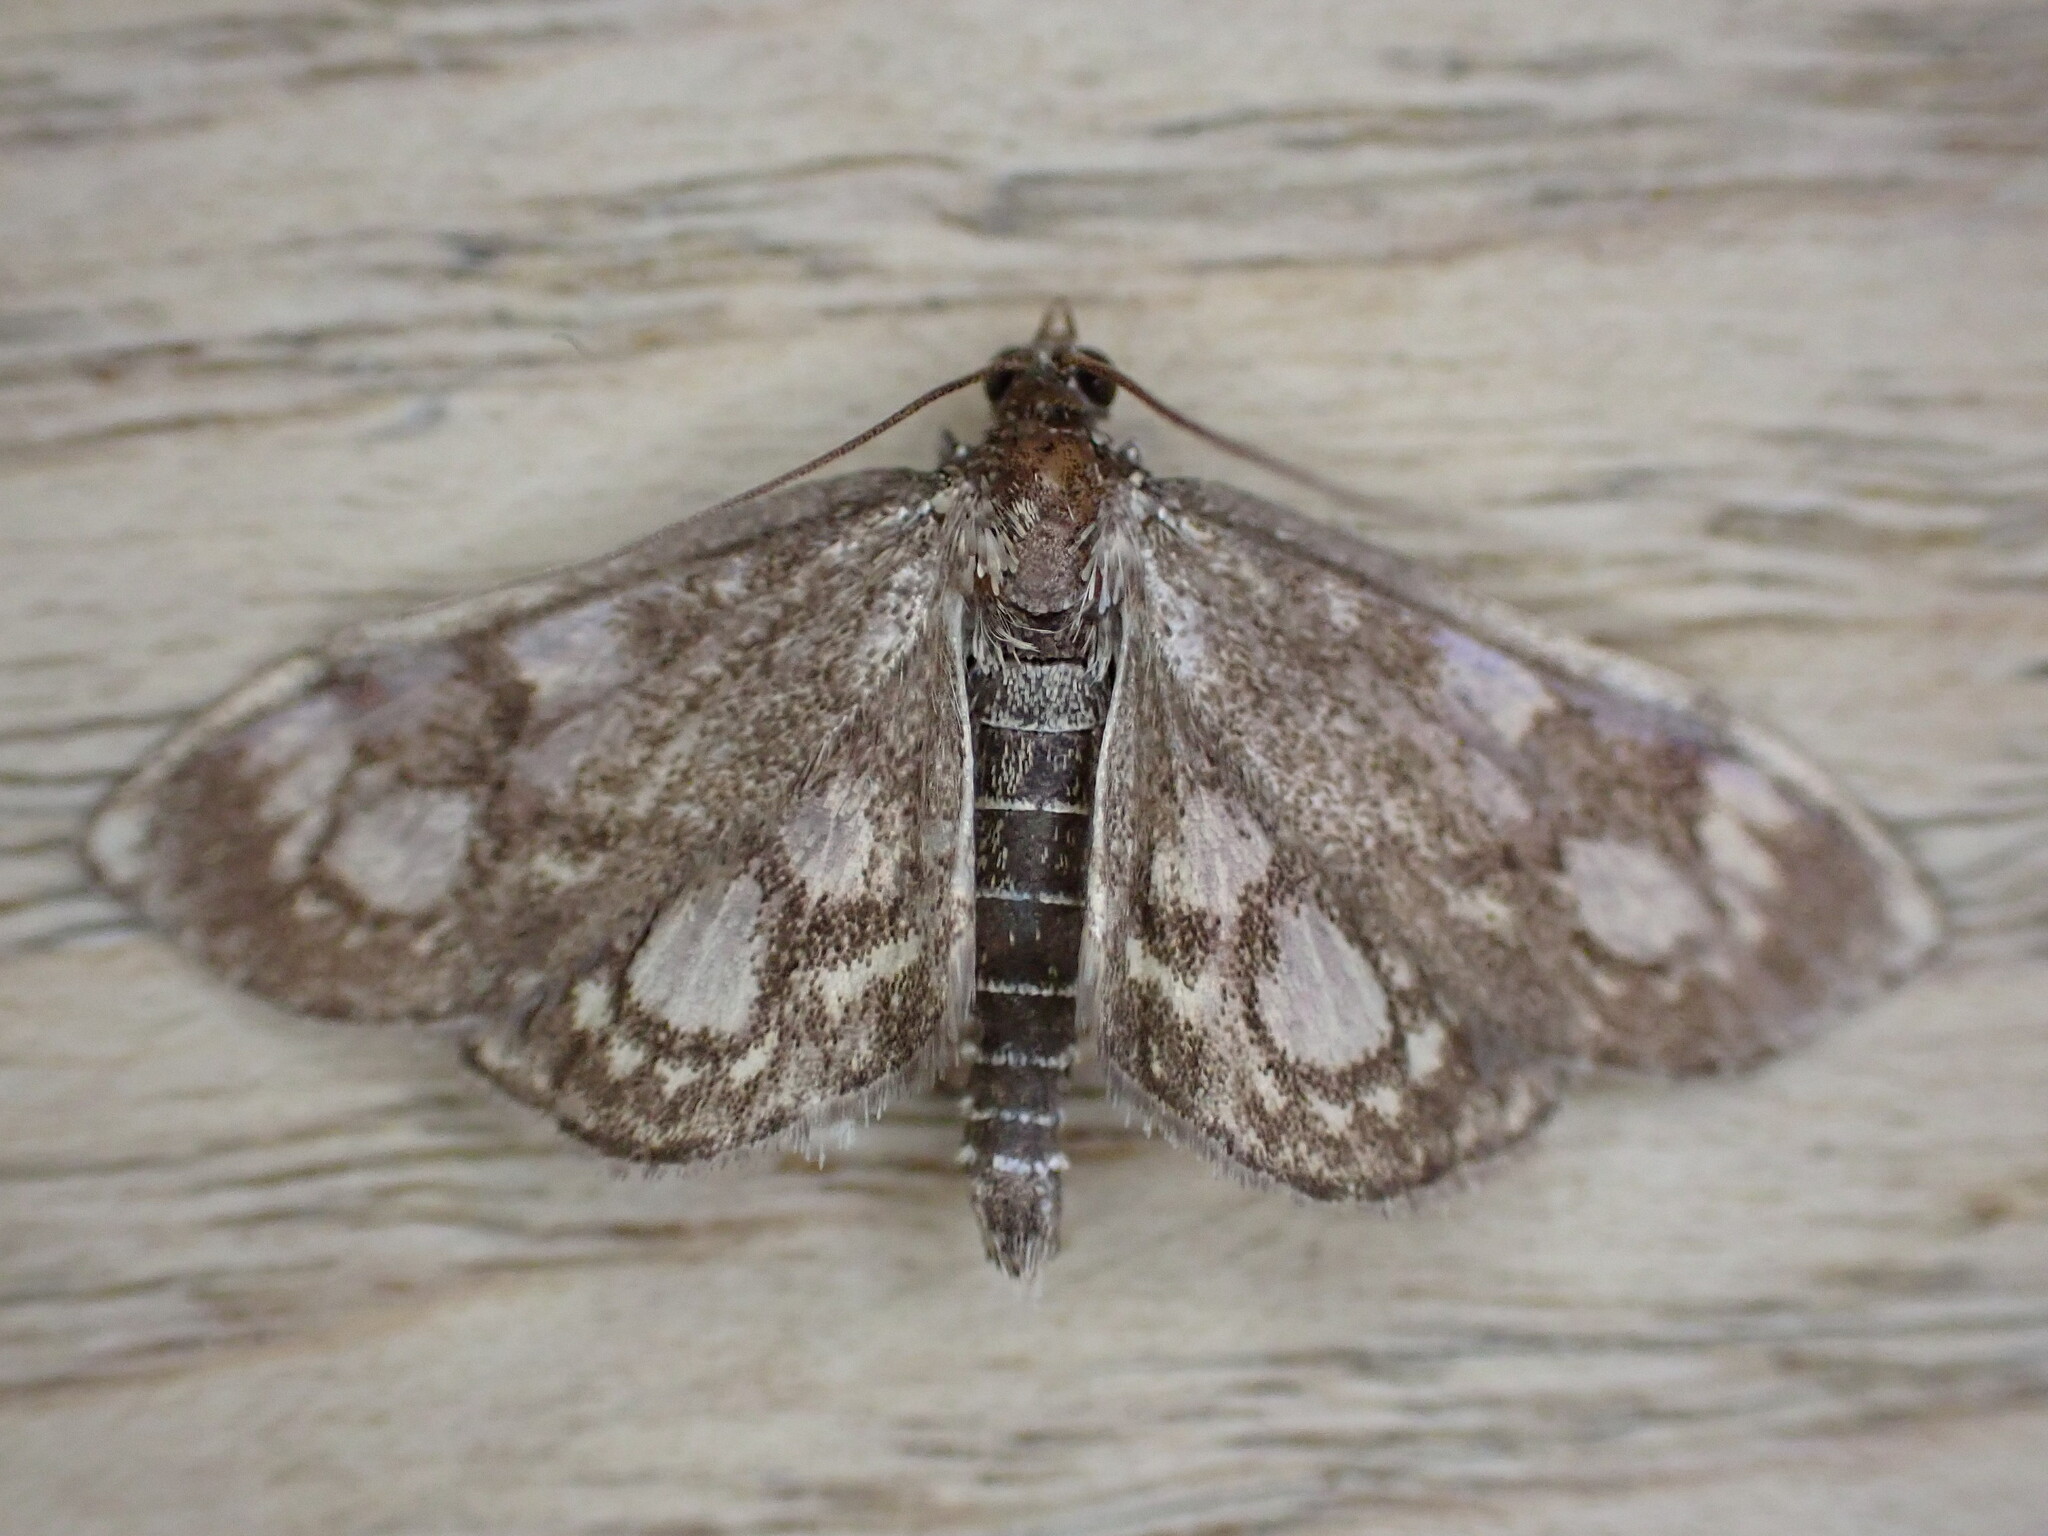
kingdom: Animalia
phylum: Arthropoda
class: Insecta
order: Lepidoptera
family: Crambidae
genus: Anania
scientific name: Anania coronata
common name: Elder pearl
